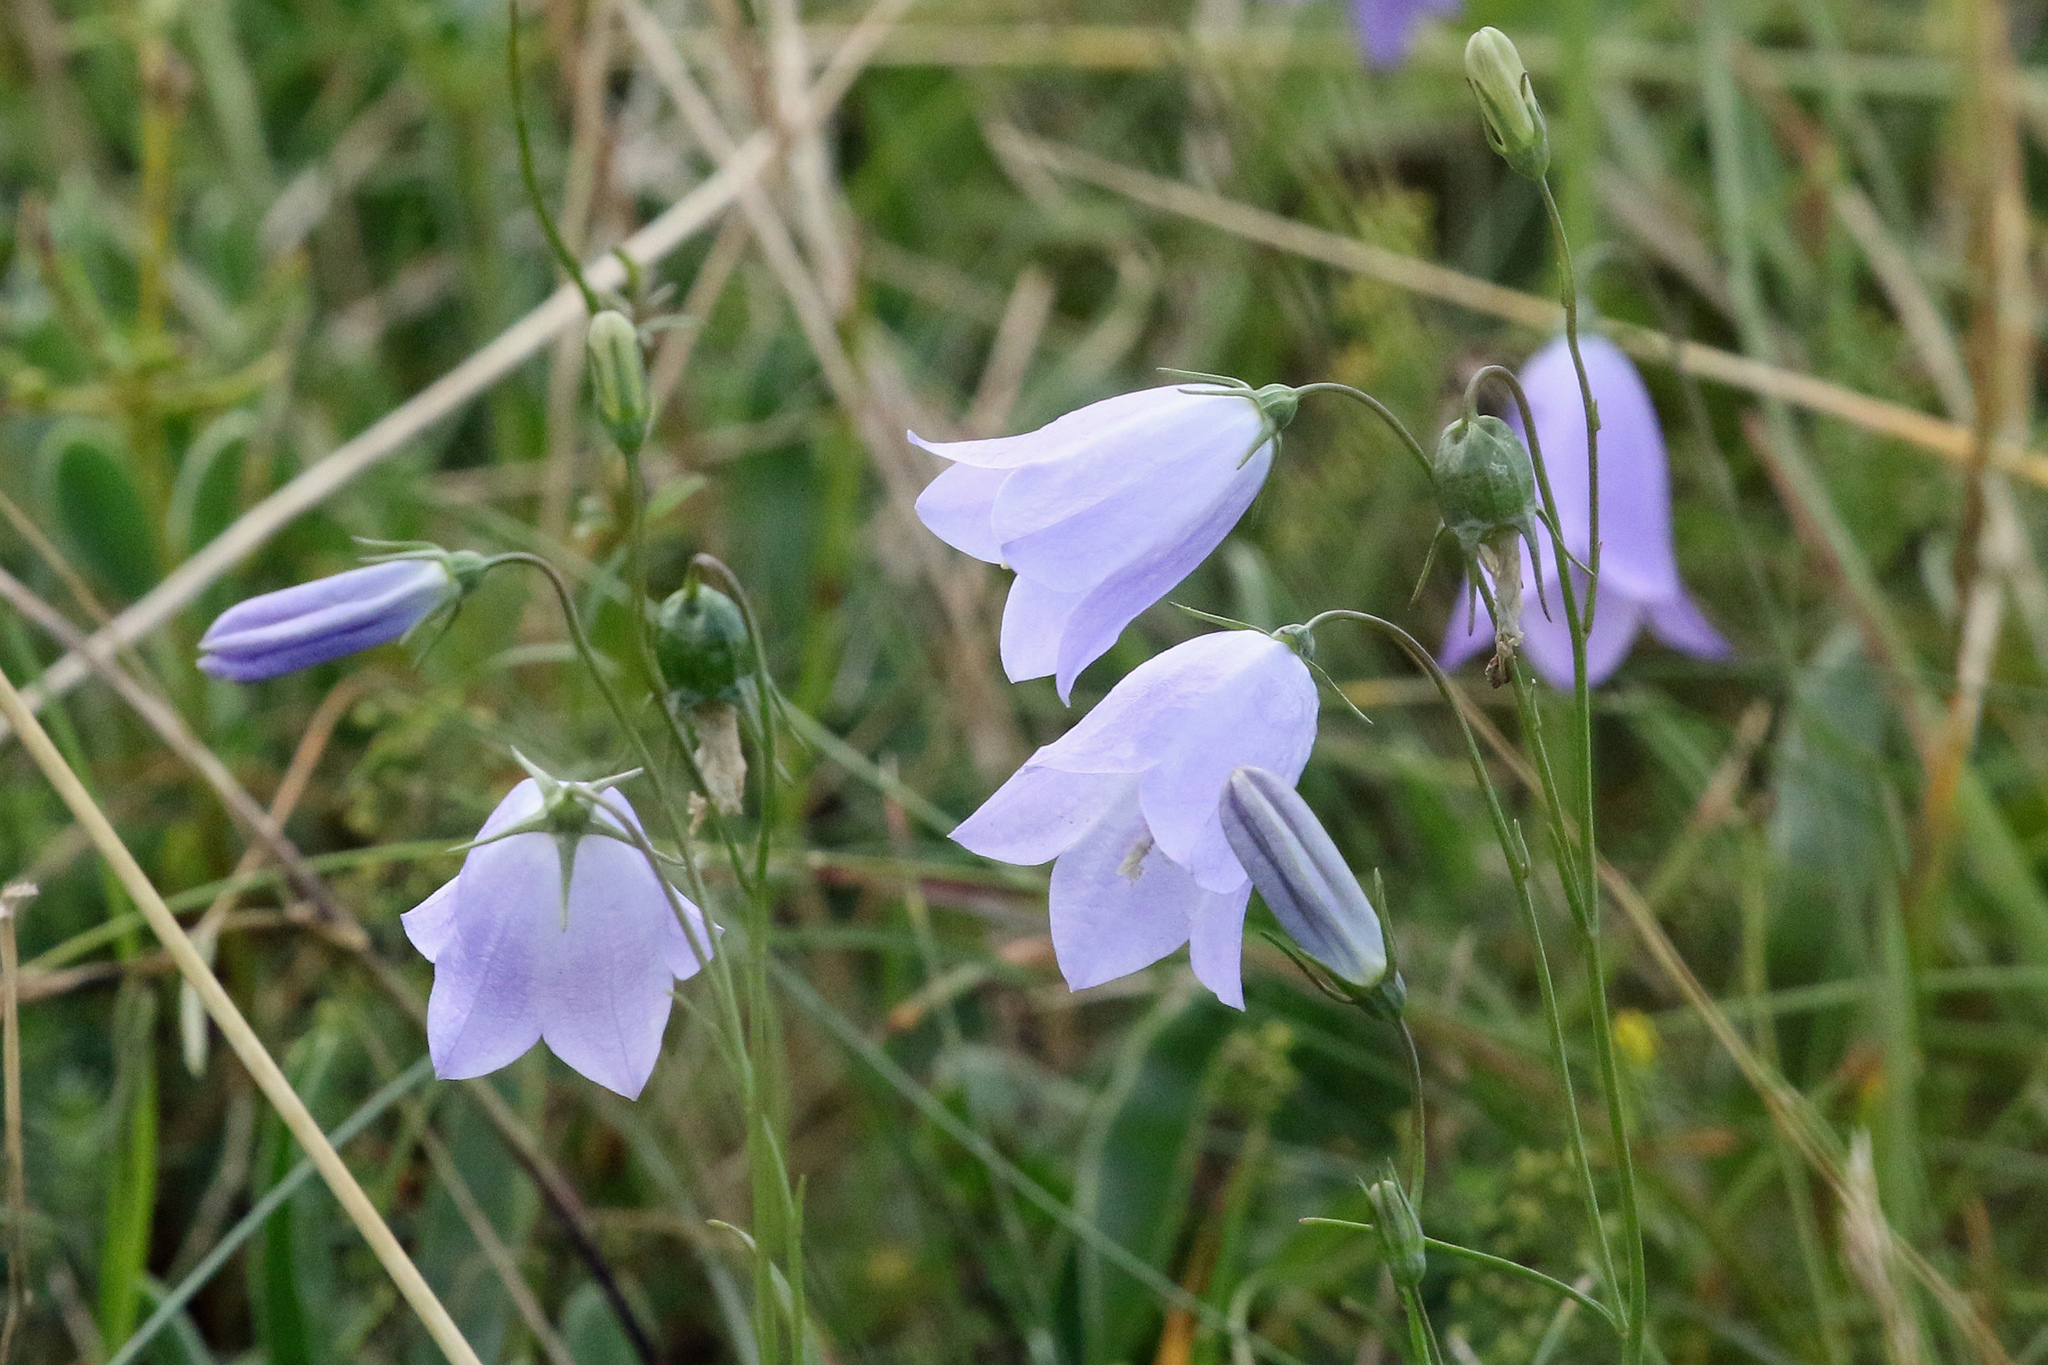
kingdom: Plantae
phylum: Tracheophyta
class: Magnoliopsida
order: Asterales
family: Campanulaceae
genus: Campanula
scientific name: Campanula rotundifolia
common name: Harebell
